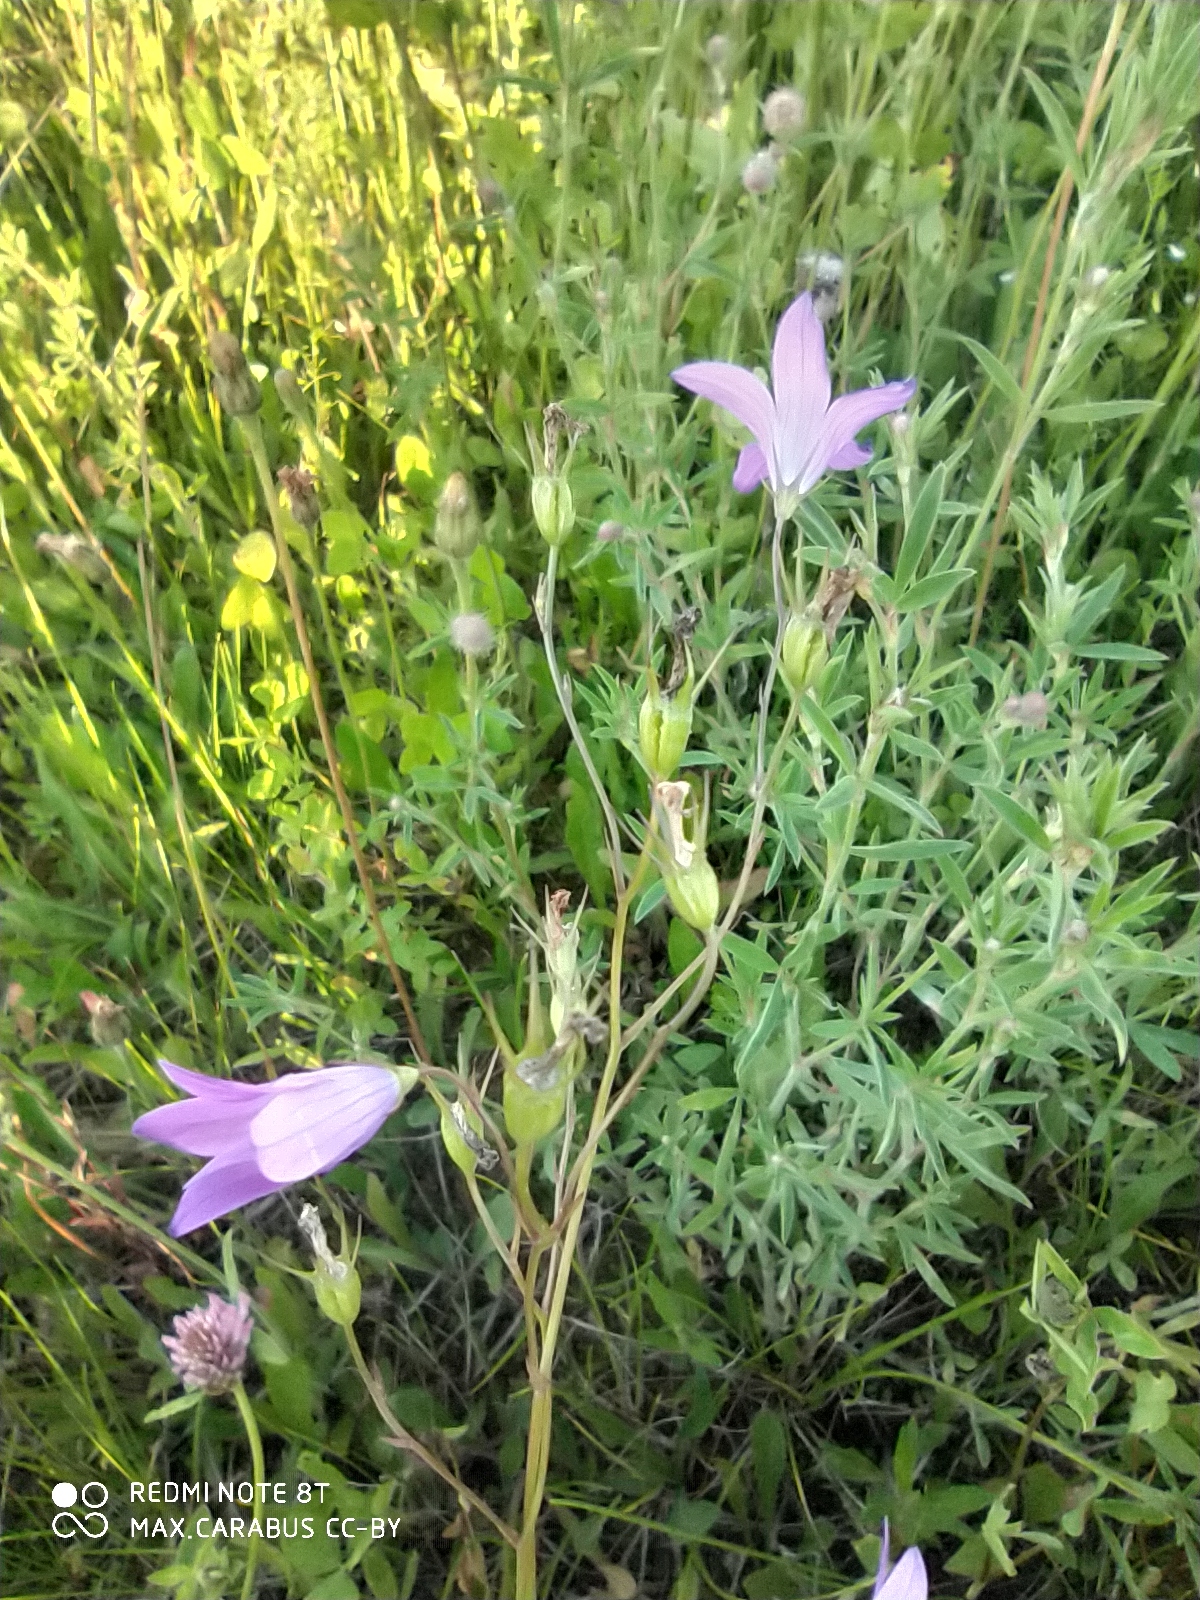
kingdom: Plantae
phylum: Tracheophyta
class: Magnoliopsida
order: Asterales
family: Campanulaceae
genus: Campanula
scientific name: Campanula patula
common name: Spreading bellflower
